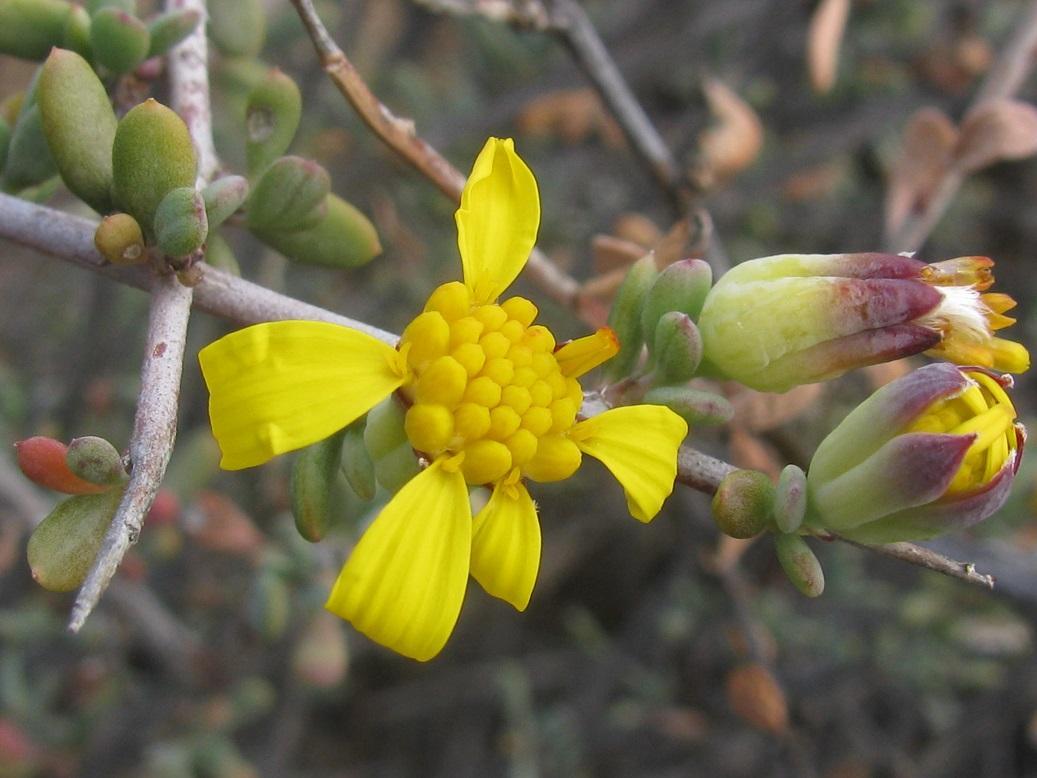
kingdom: Plantae
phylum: Tracheophyta
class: Magnoliopsida
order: Asterales
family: Asteraceae
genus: Othonna
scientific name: Othonna pteronioides
